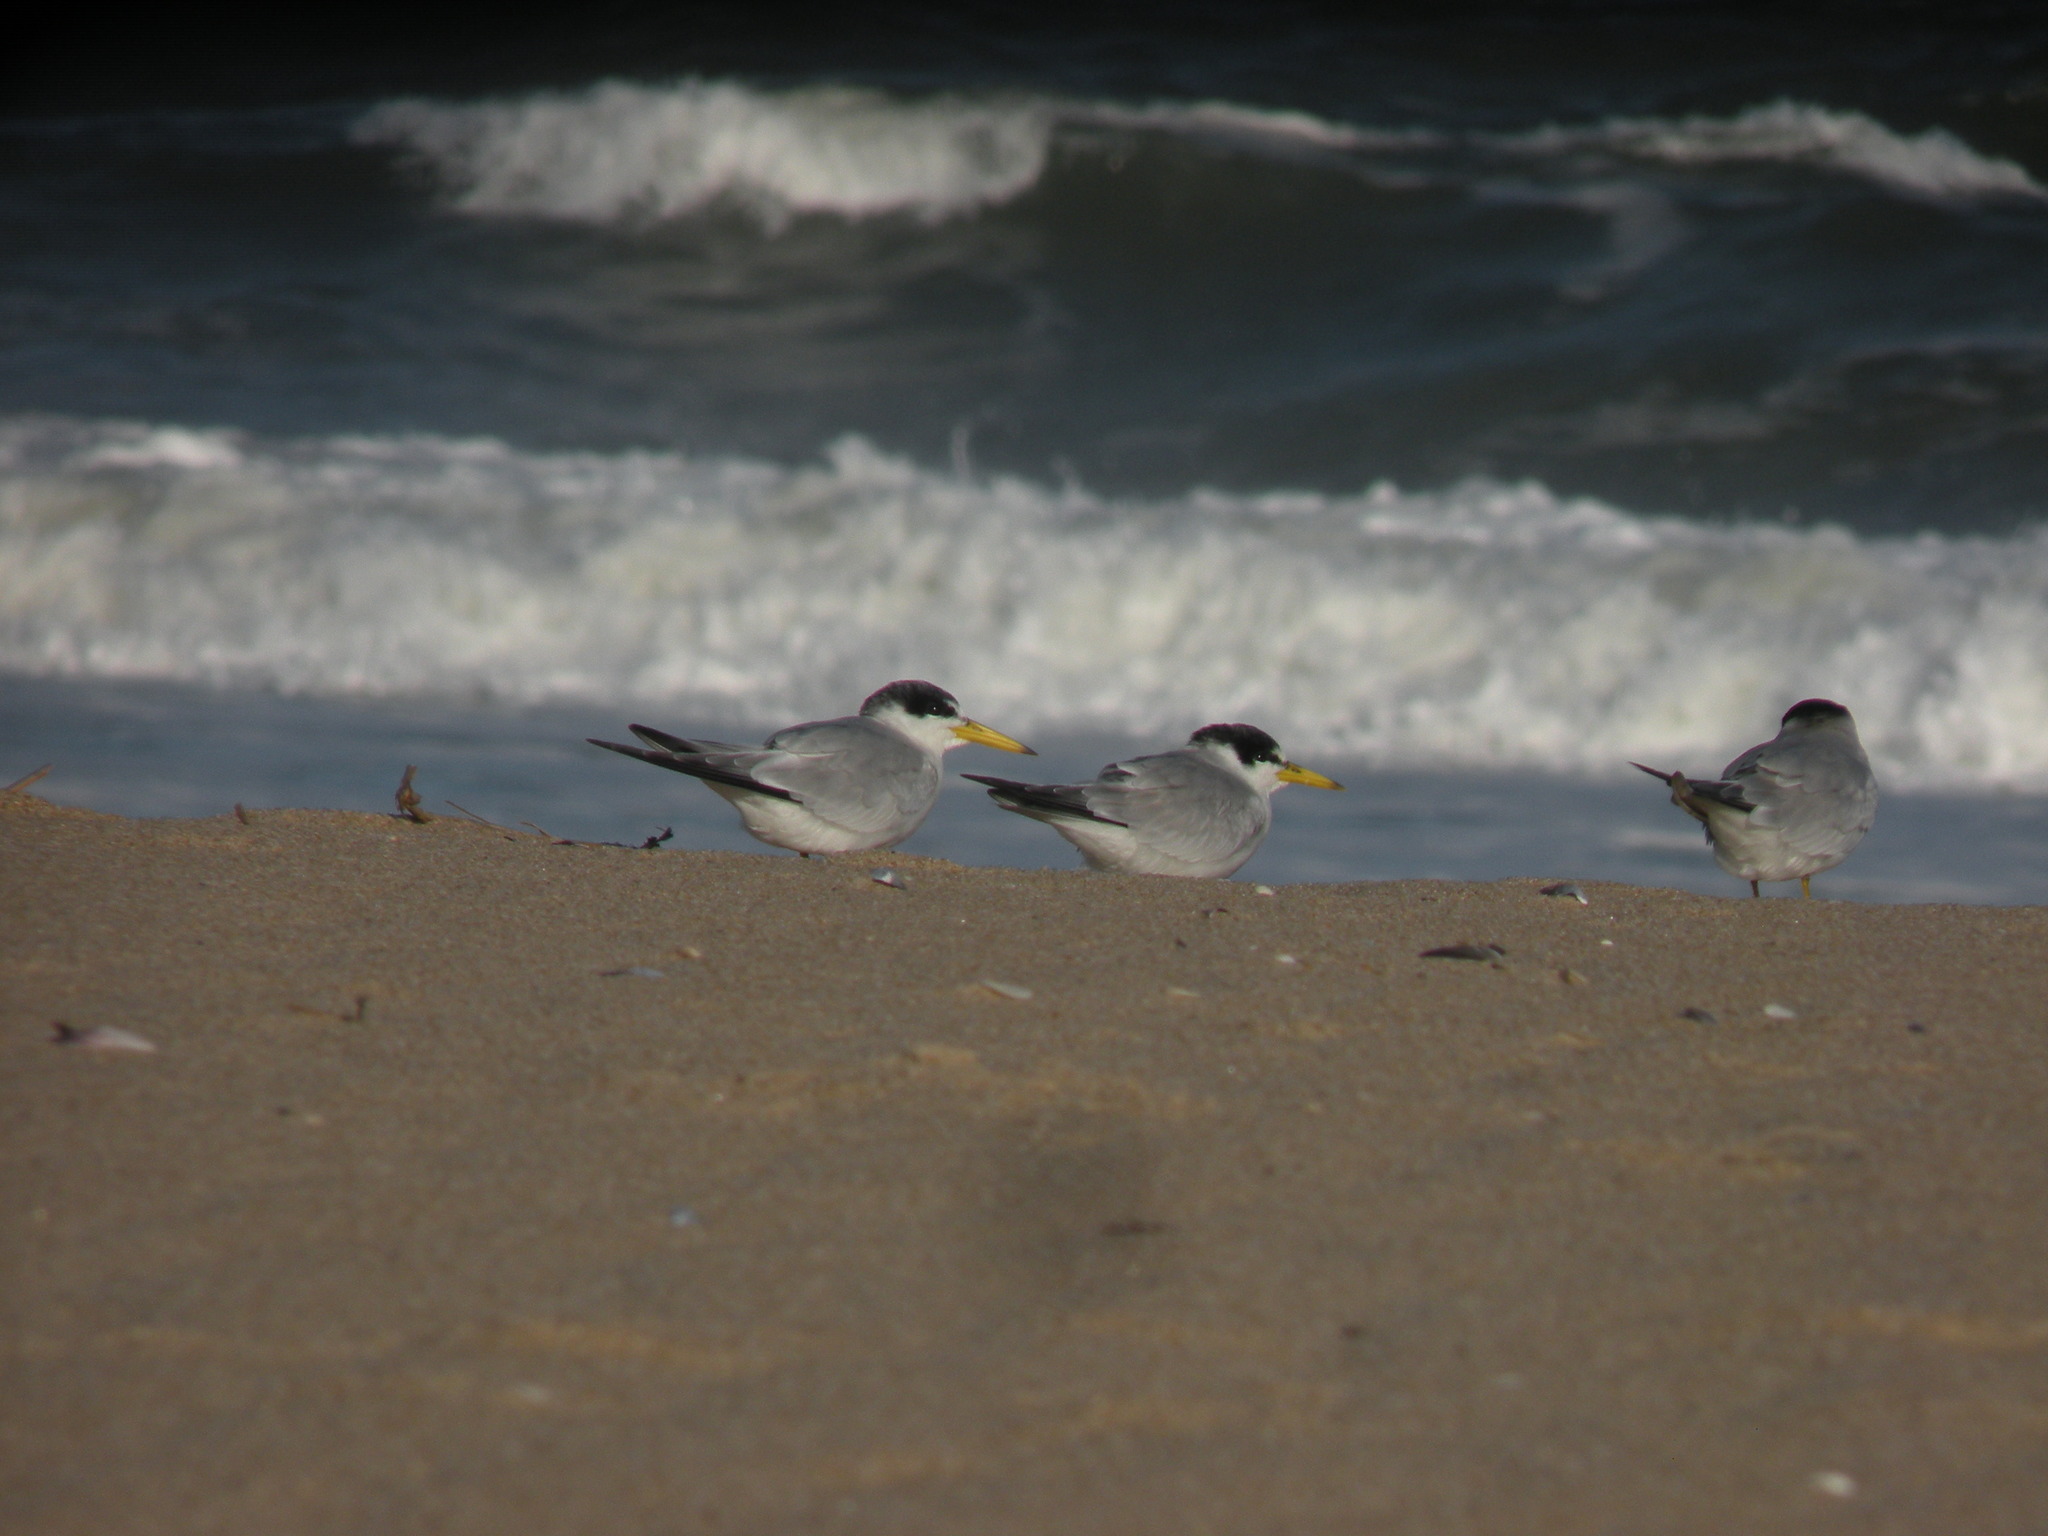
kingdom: Animalia
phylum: Chordata
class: Aves
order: Charadriiformes
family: Laridae
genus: Sternula
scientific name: Sternula superciliaris
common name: Yellow-billed tern
